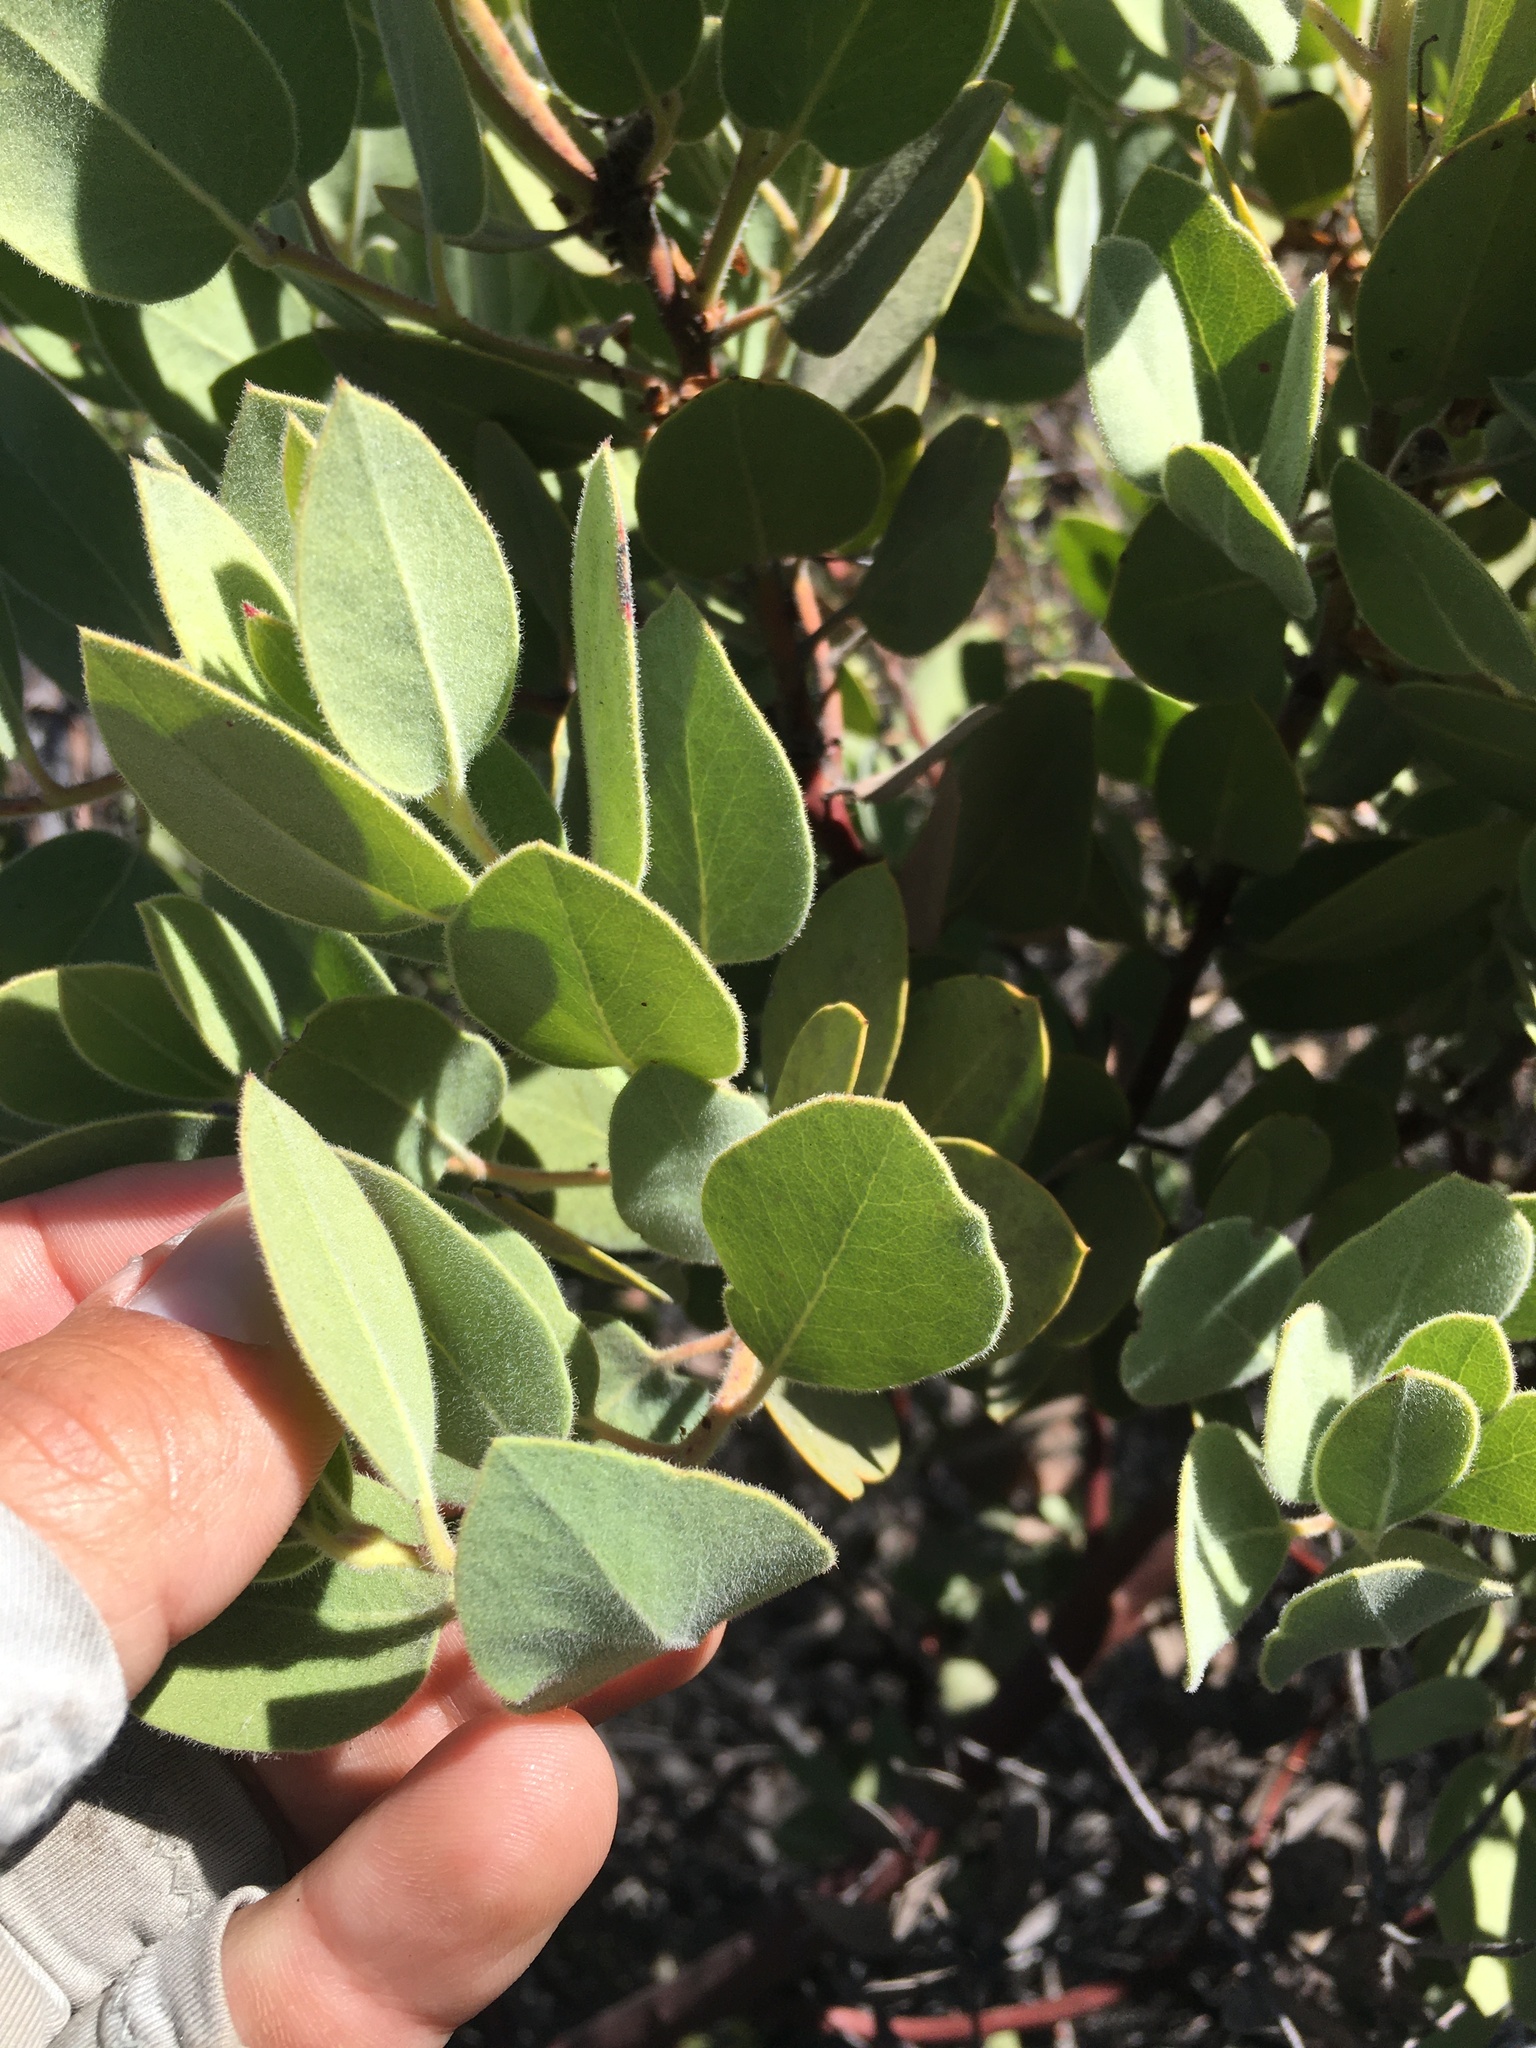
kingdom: Plantae
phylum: Tracheophyta
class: Magnoliopsida
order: Ericales
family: Ericaceae
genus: Arctostaphylos
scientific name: Arctostaphylos glandulosa
